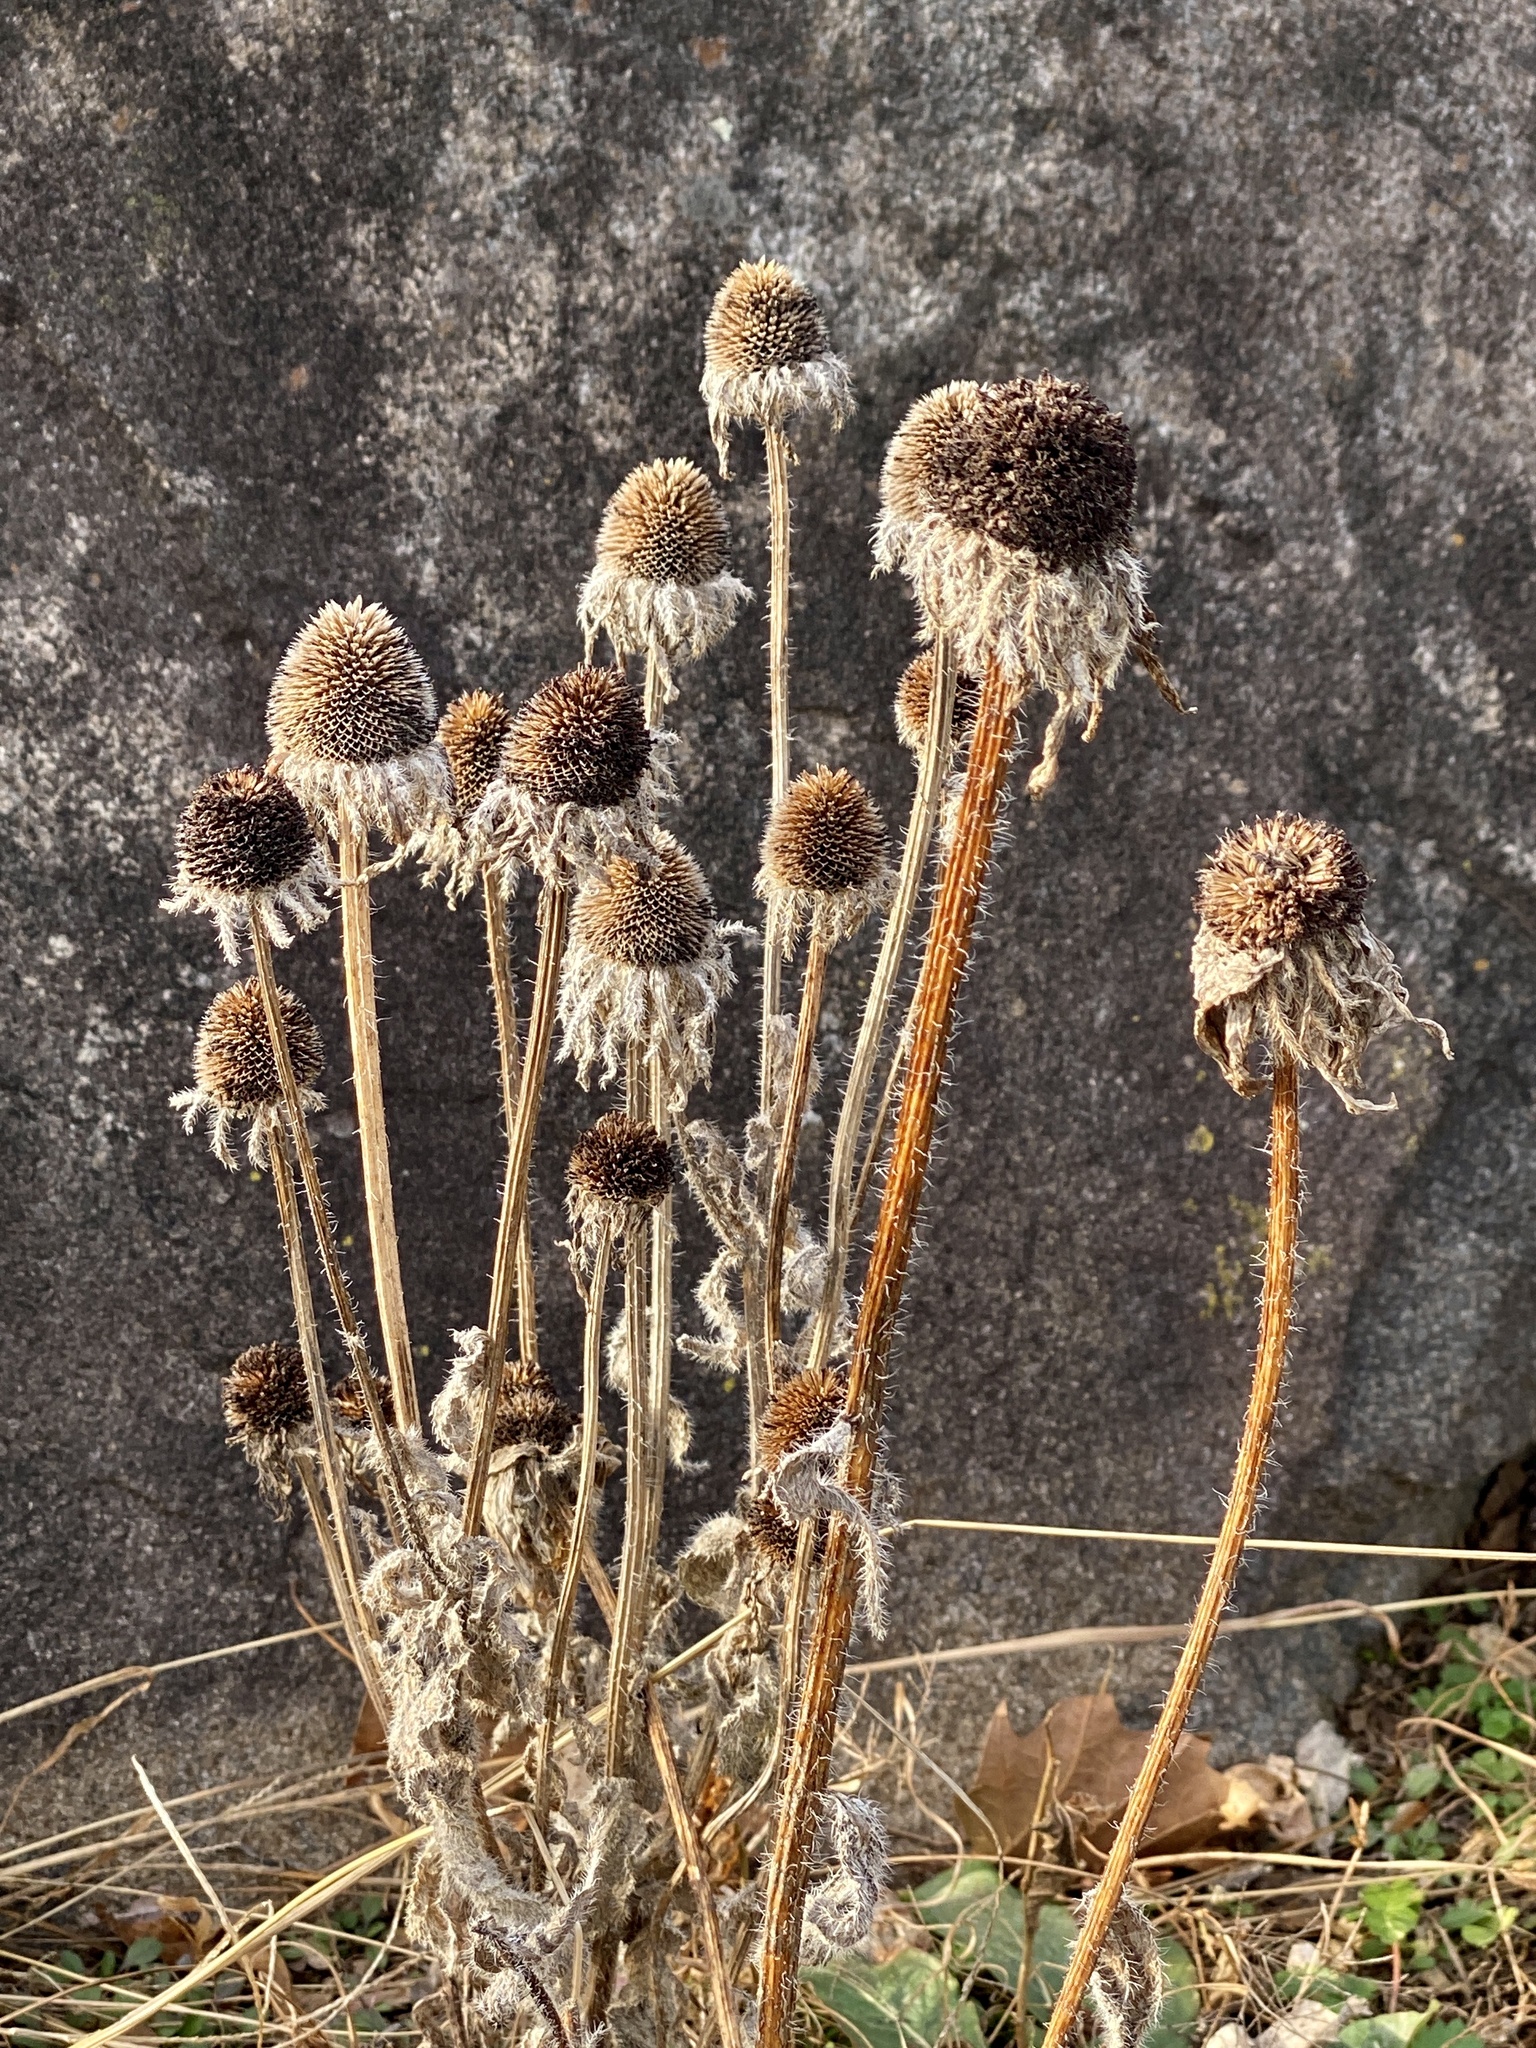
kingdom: Plantae
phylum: Tracheophyta
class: Magnoliopsida
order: Asterales
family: Asteraceae
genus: Rudbeckia
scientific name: Rudbeckia hirta
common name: Black-eyed-susan
